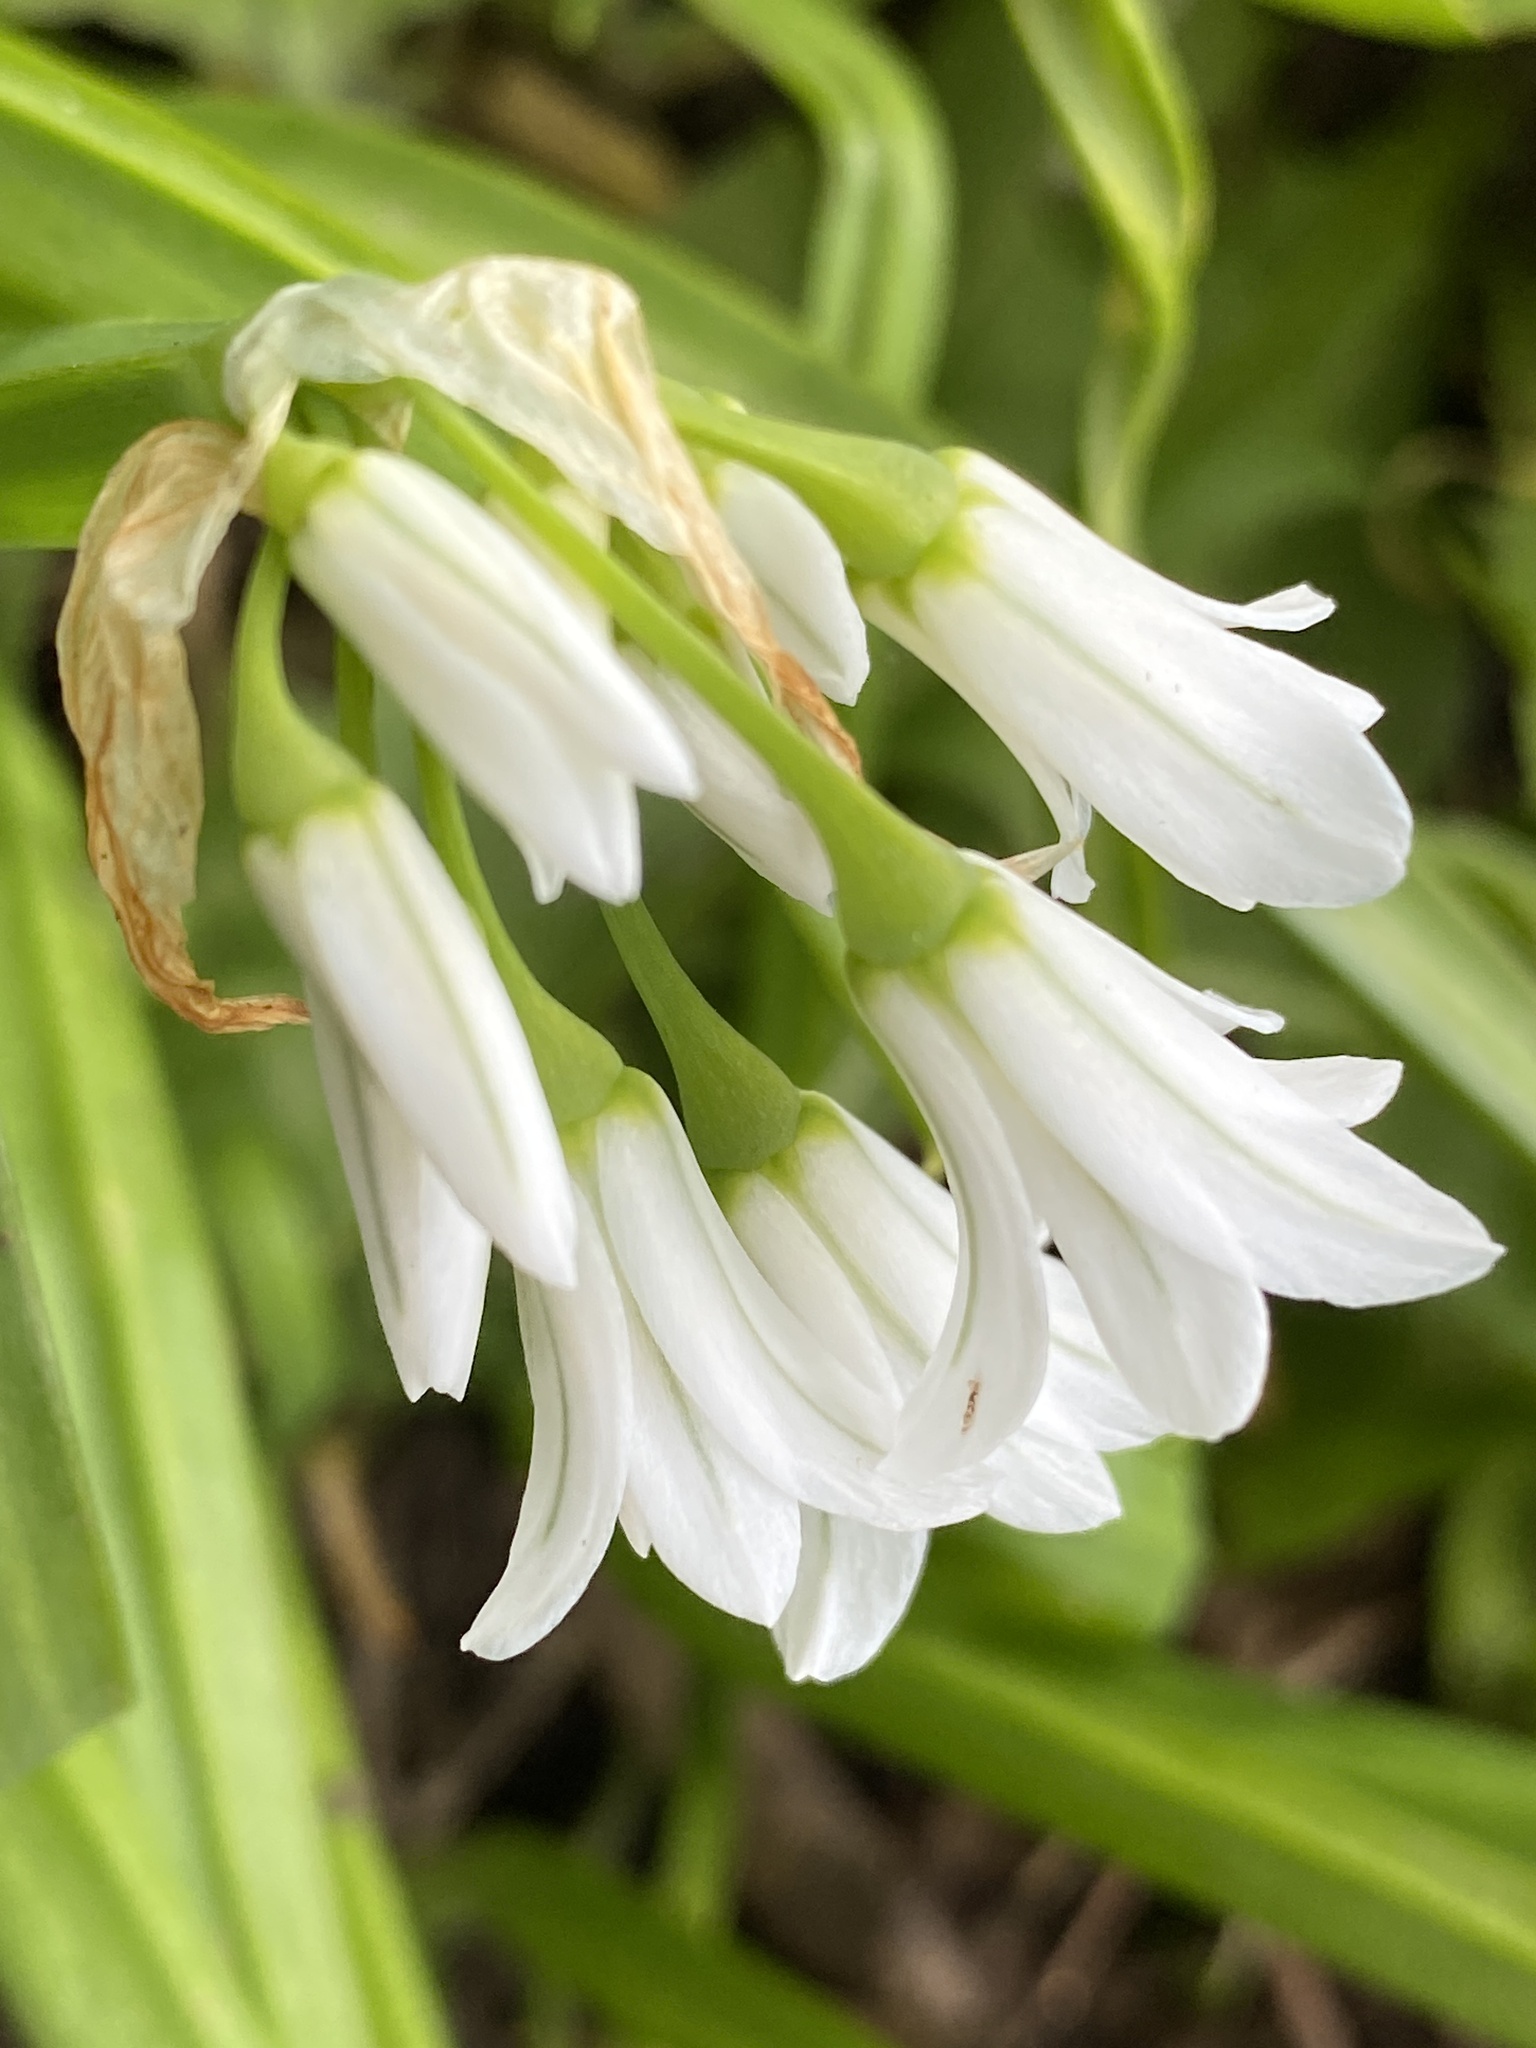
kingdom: Plantae
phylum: Tracheophyta
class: Liliopsida
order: Asparagales
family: Amaryllidaceae
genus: Allium
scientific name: Allium triquetrum
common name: Three-cornered garlic
